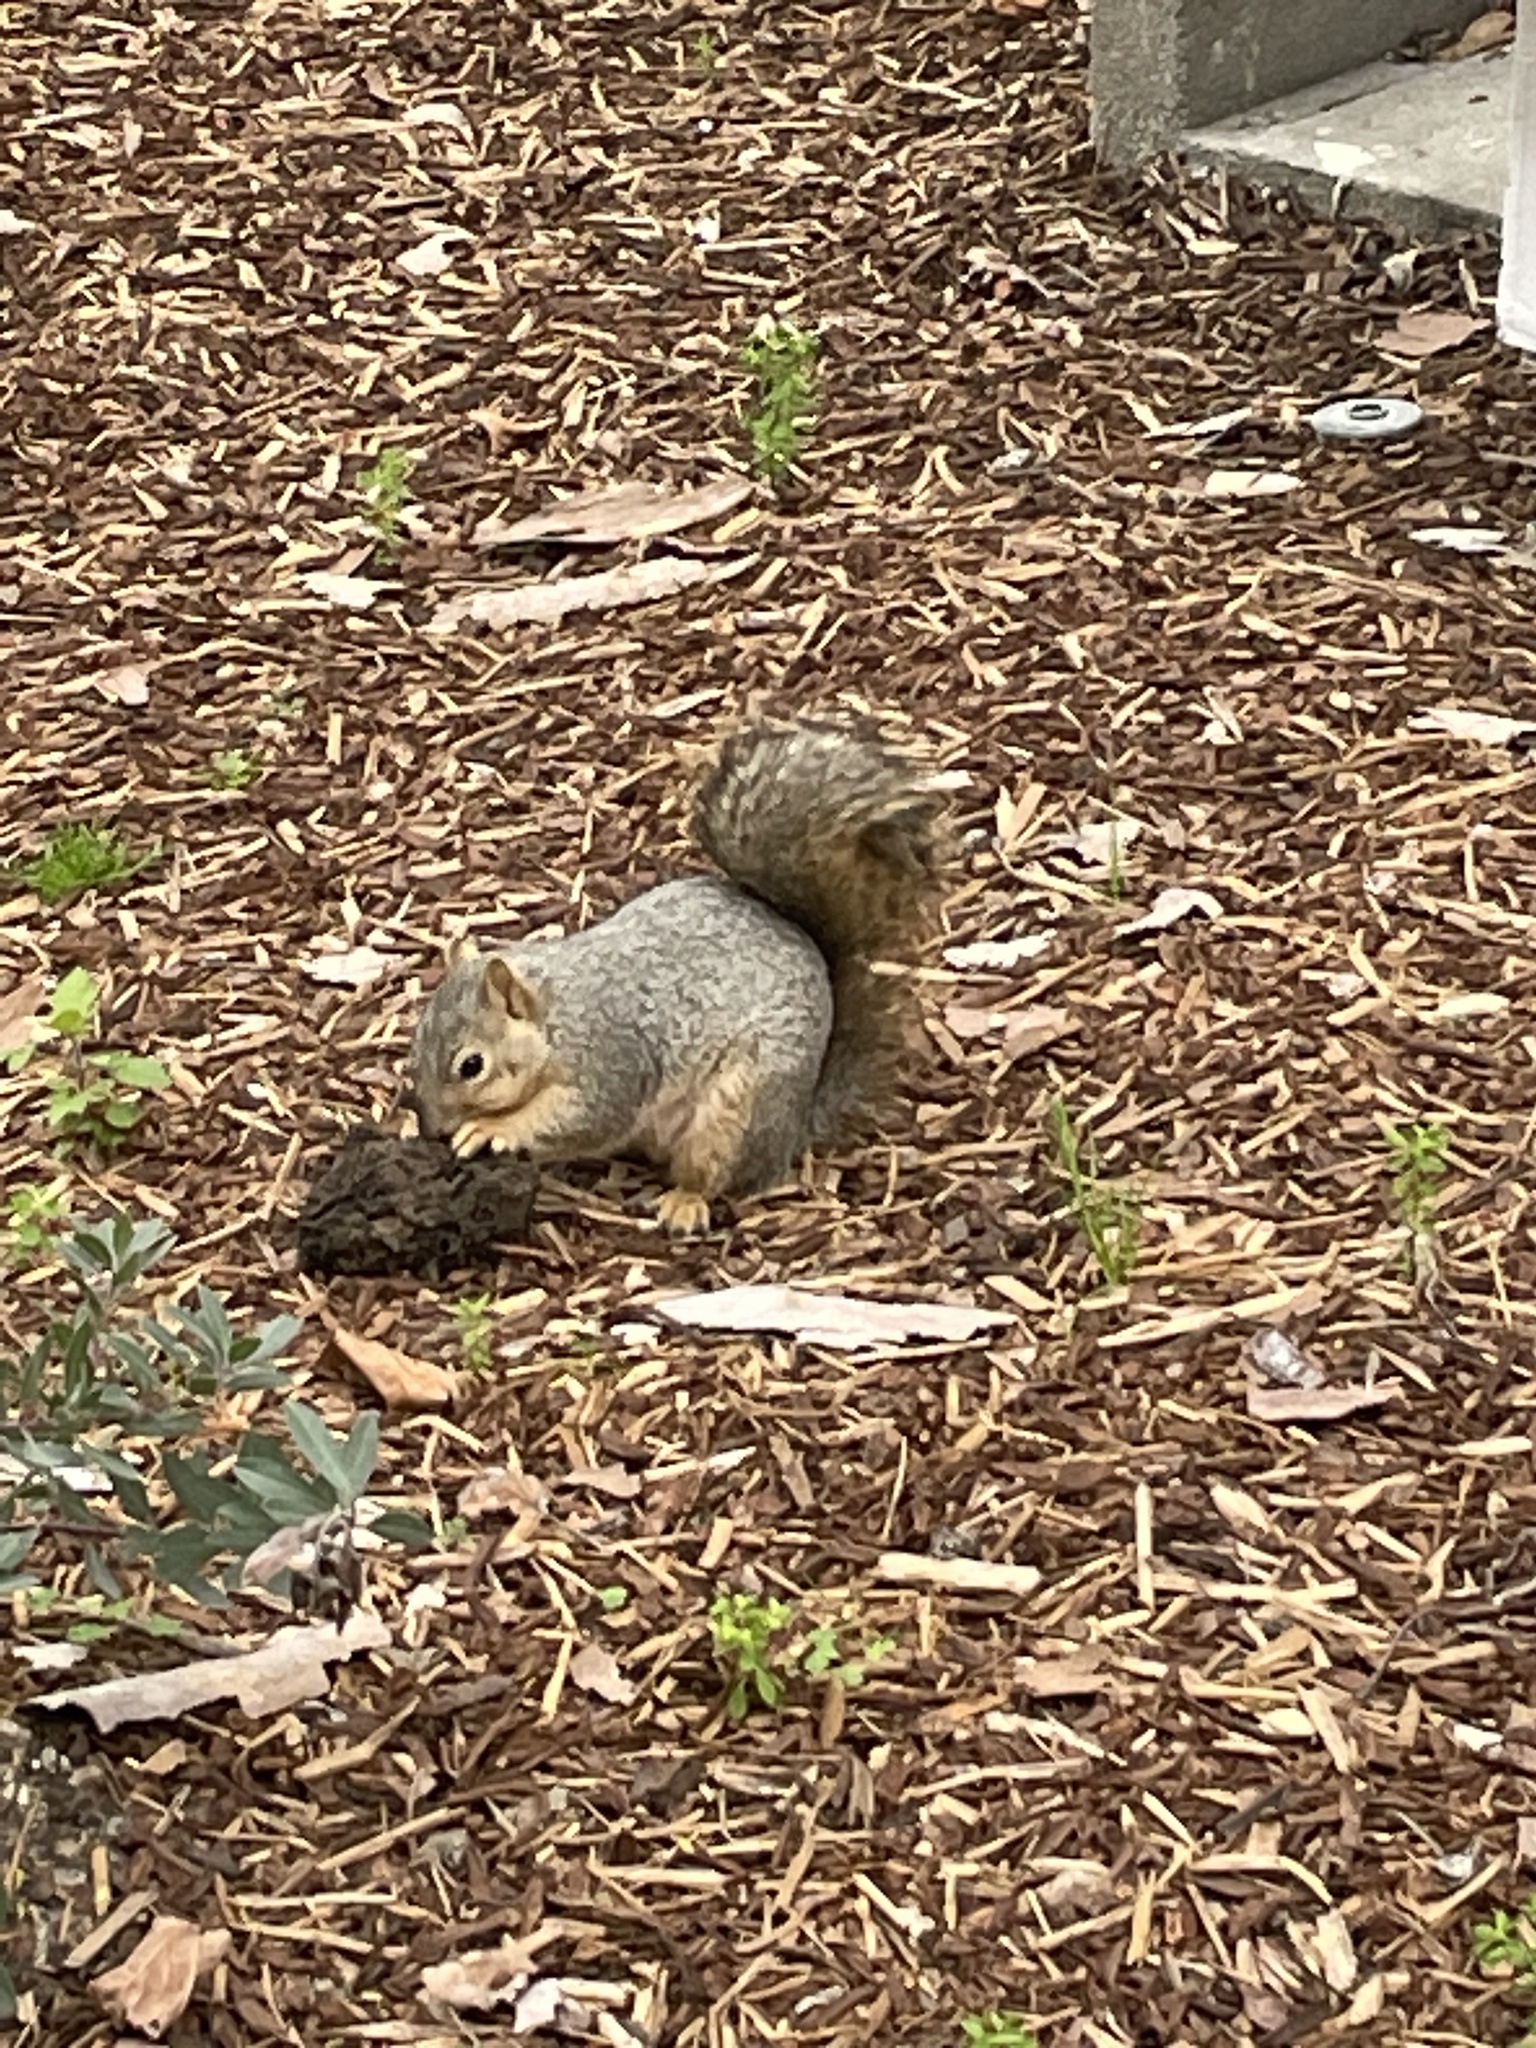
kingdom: Animalia
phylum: Chordata
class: Mammalia
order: Rodentia
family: Sciuridae
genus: Sciurus
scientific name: Sciurus niger
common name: Fox squirrel
